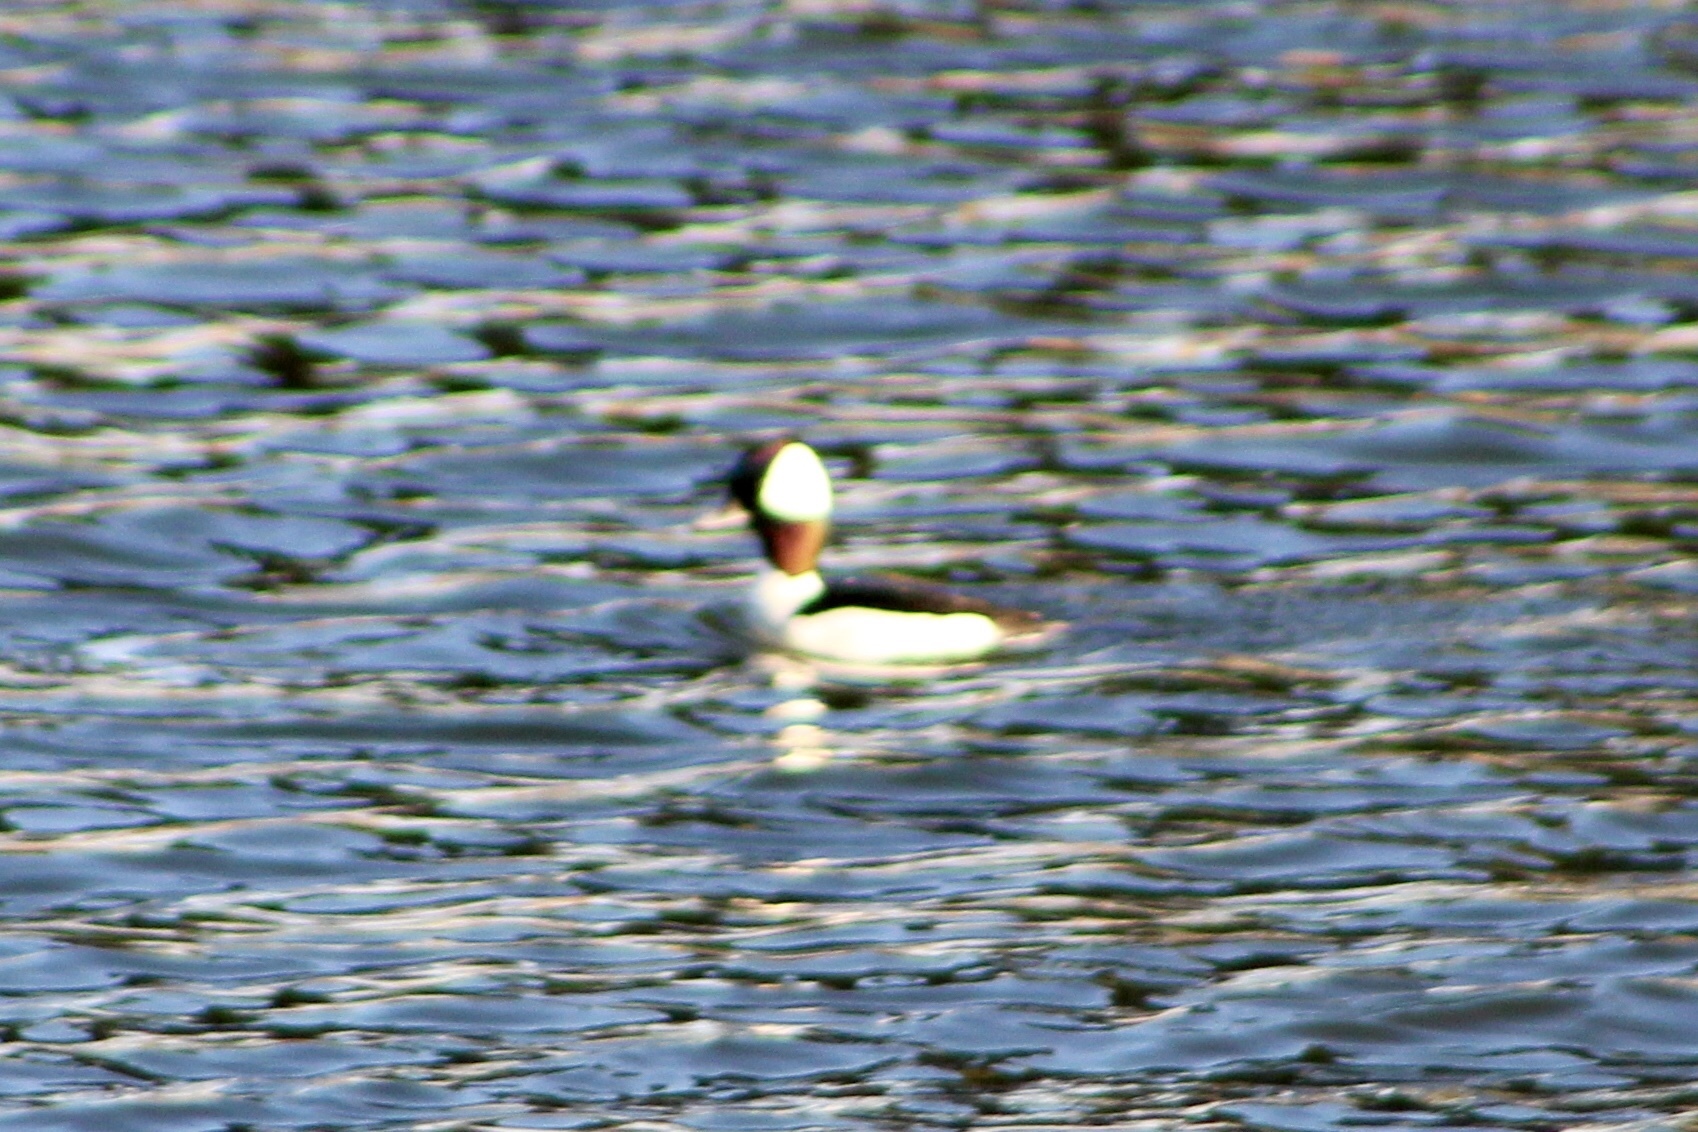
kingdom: Animalia
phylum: Chordata
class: Aves
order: Anseriformes
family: Anatidae
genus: Bucephala
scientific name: Bucephala albeola
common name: Bufflehead
